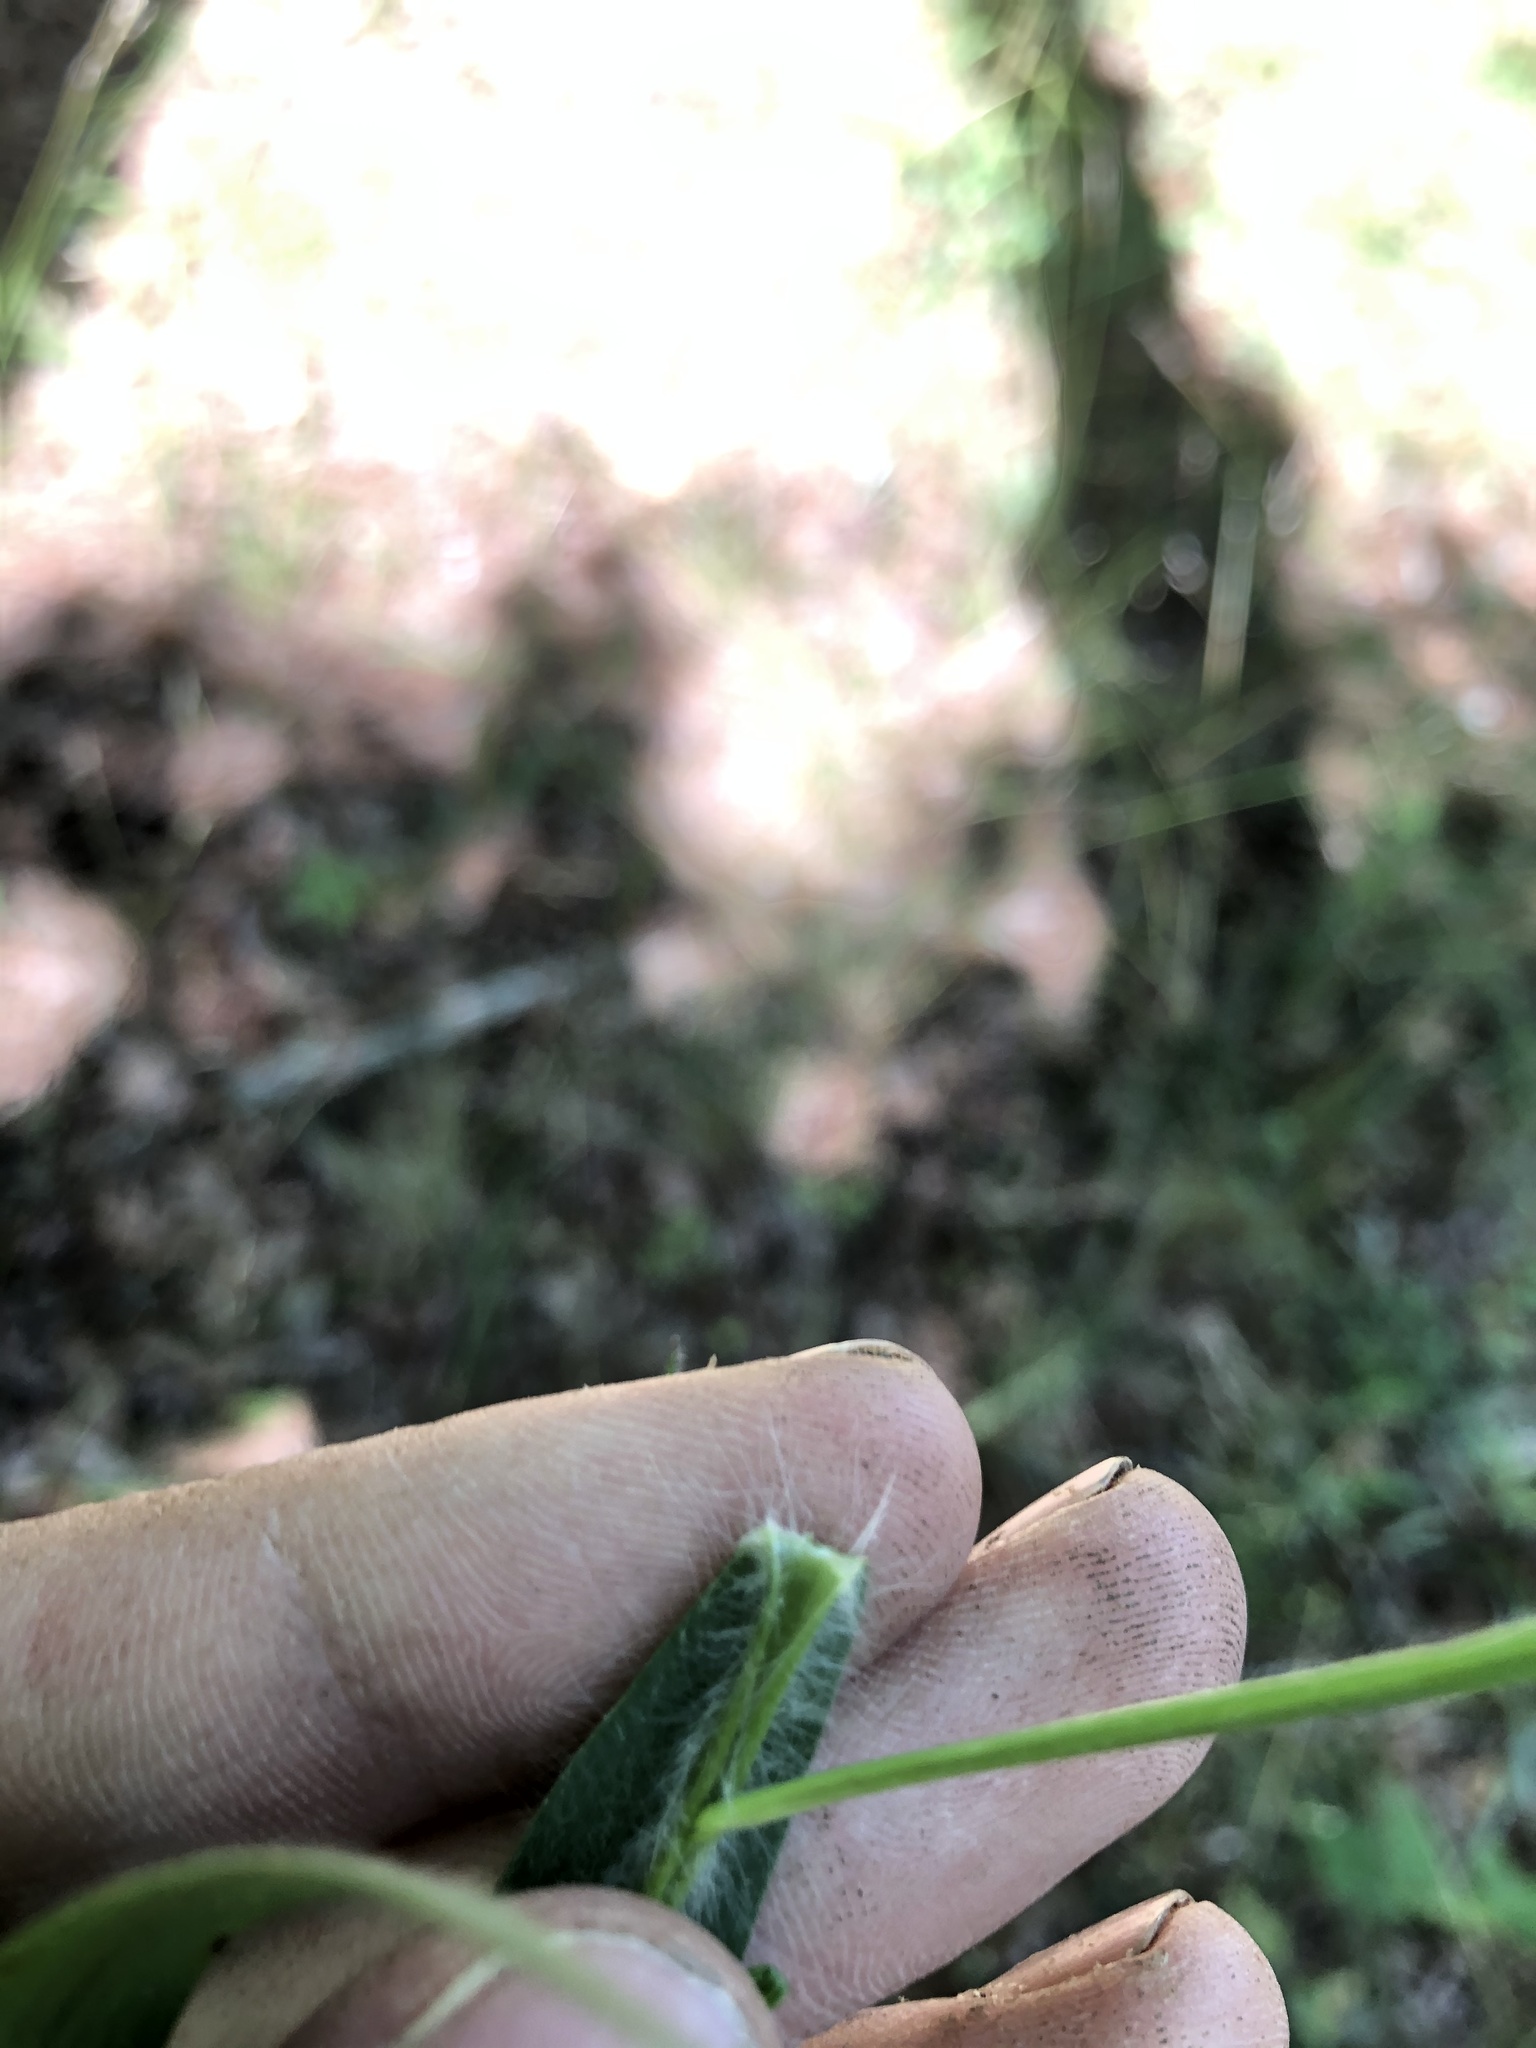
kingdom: Plantae
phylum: Tracheophyta
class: Liliopsida
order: Poales
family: Poaceae
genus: Dichanthelium
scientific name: Dichanthelium acuminatum
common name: Hairy panic grass
